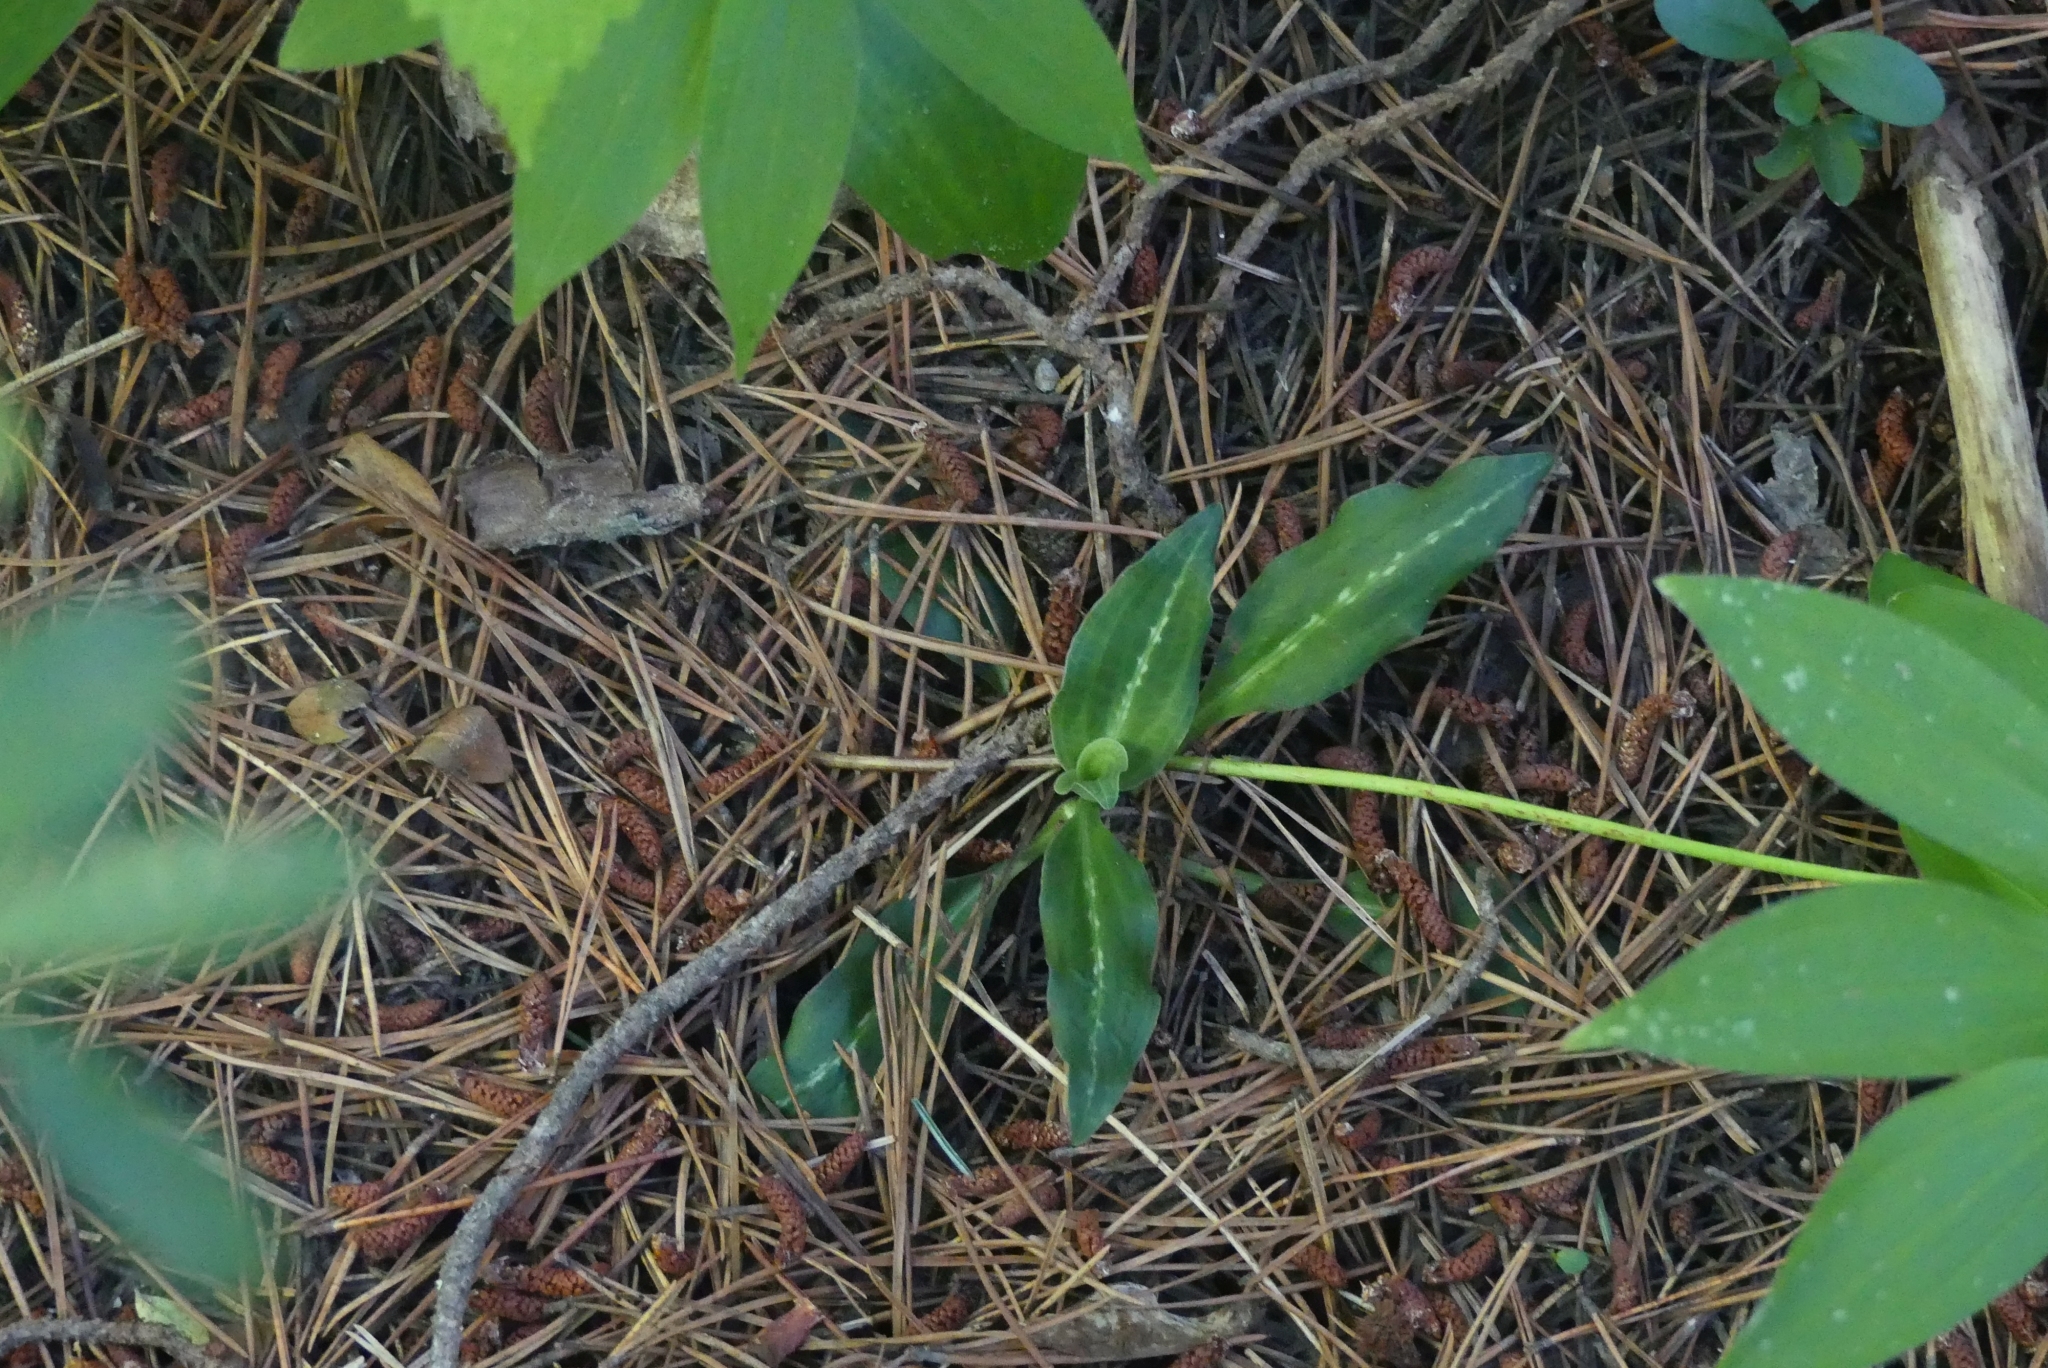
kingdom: Plantae
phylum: Tracheophyta
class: Liliopsida
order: Asparagales
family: Orchidaceae
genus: Goodyera
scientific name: Goodyera oblongifolia
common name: Giant rattlesnake-plantain
